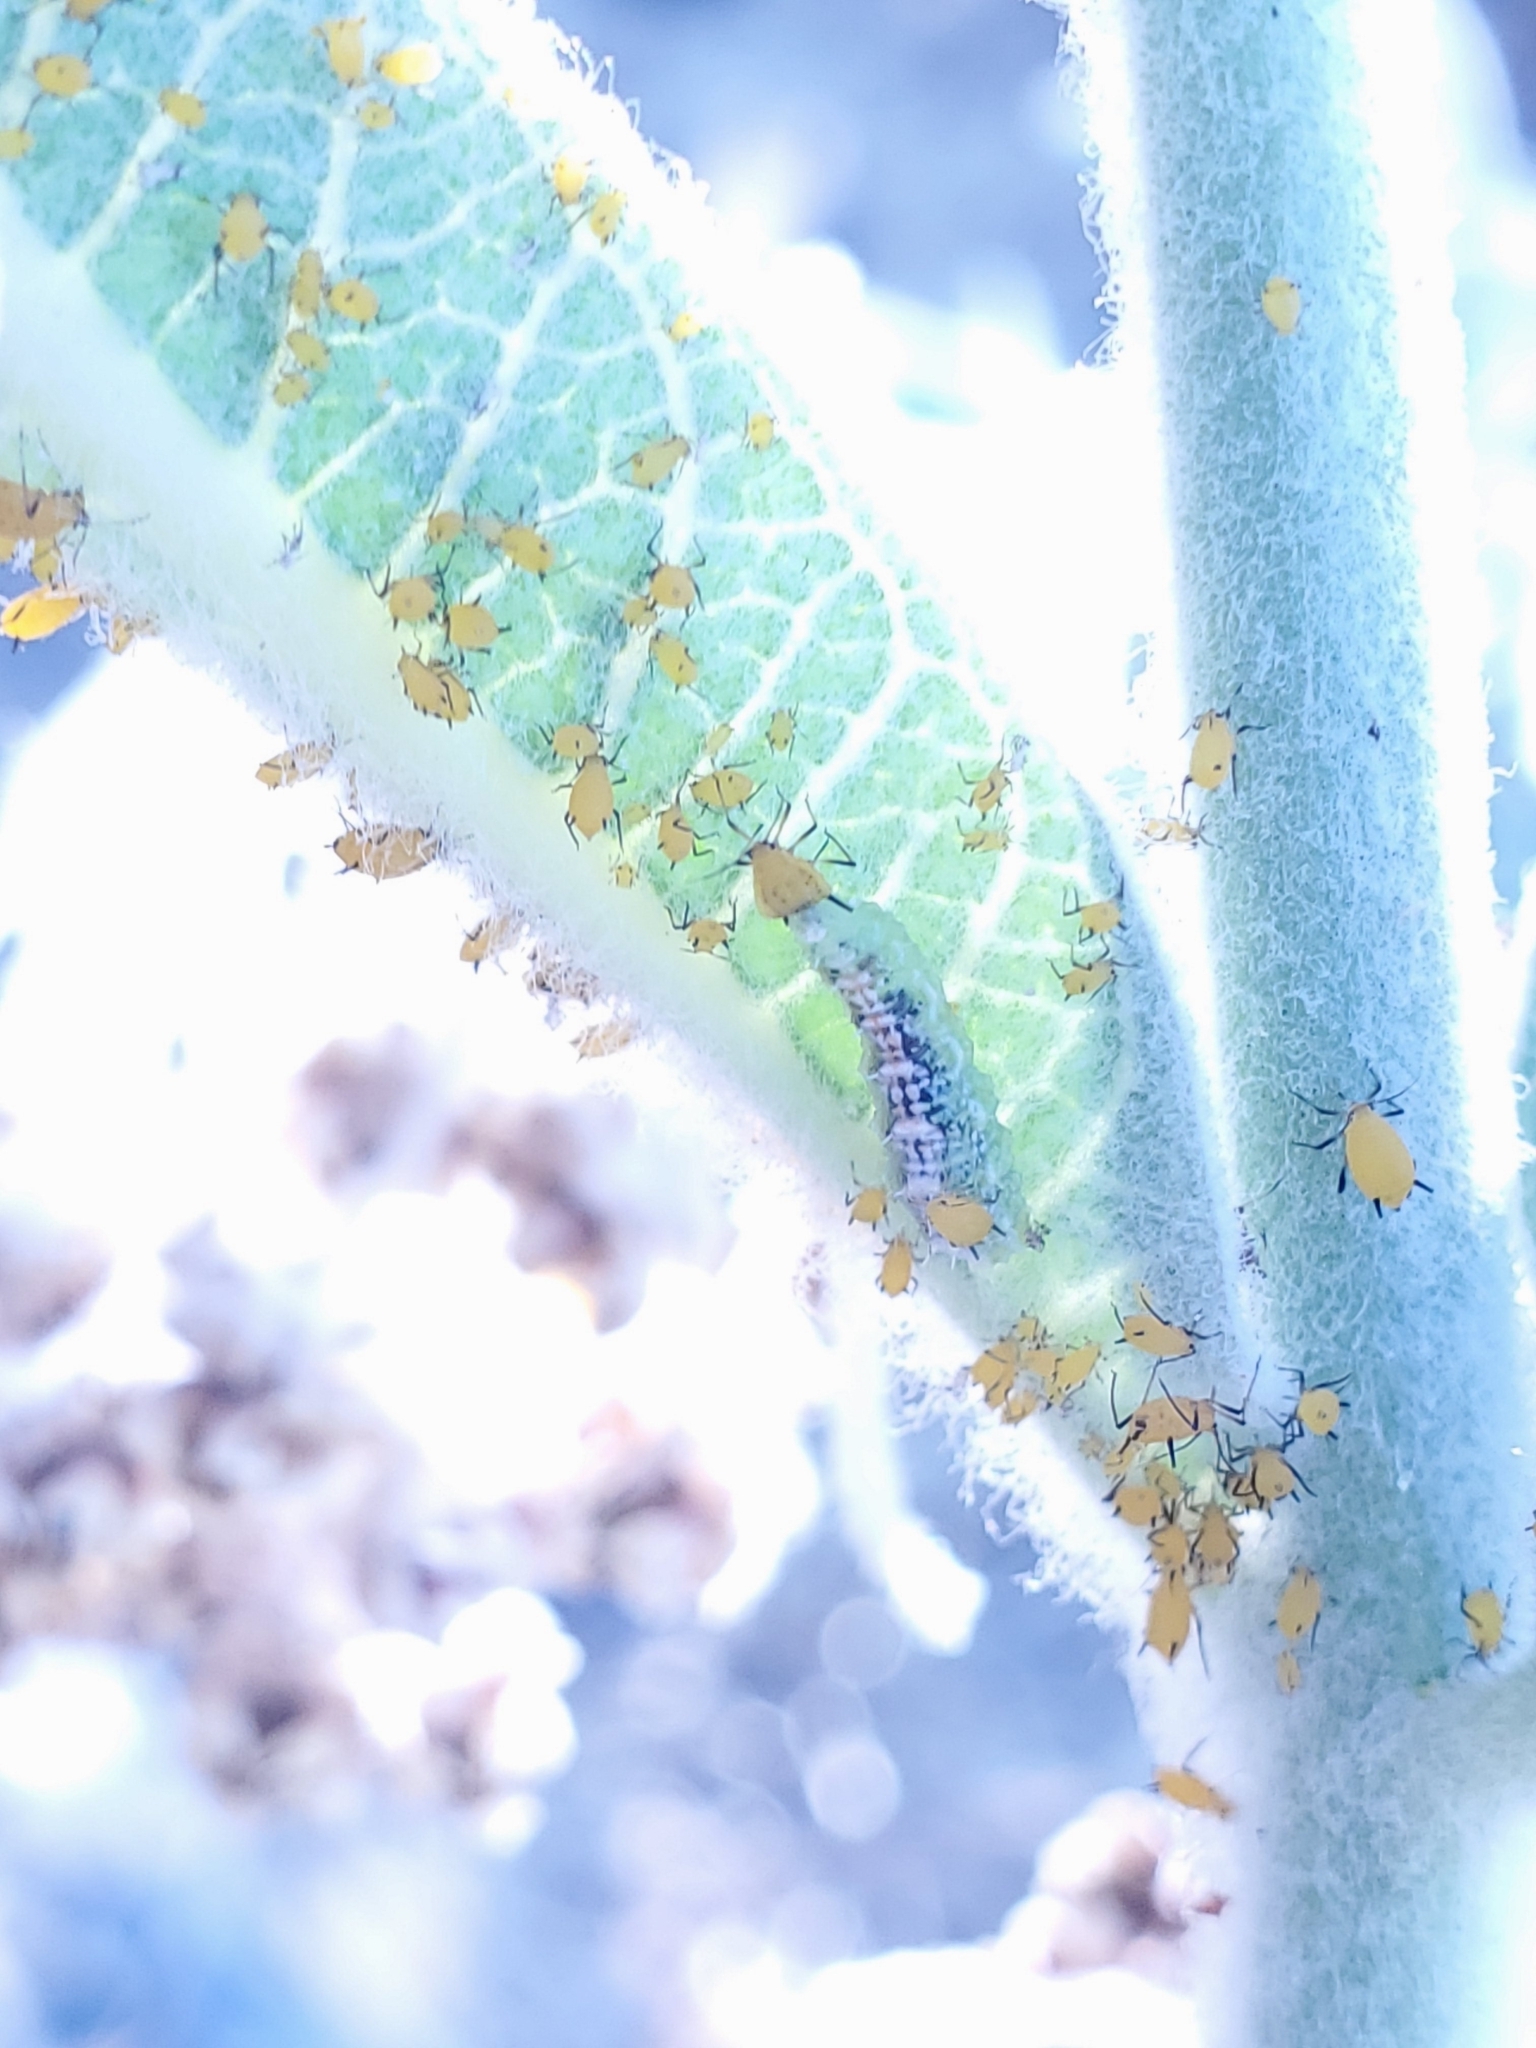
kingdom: Animalia
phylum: Arthropoda
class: Insecta
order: Hemiptera
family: Aphididae
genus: Aphis
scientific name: Aphis nerii
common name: Oleander aphid
